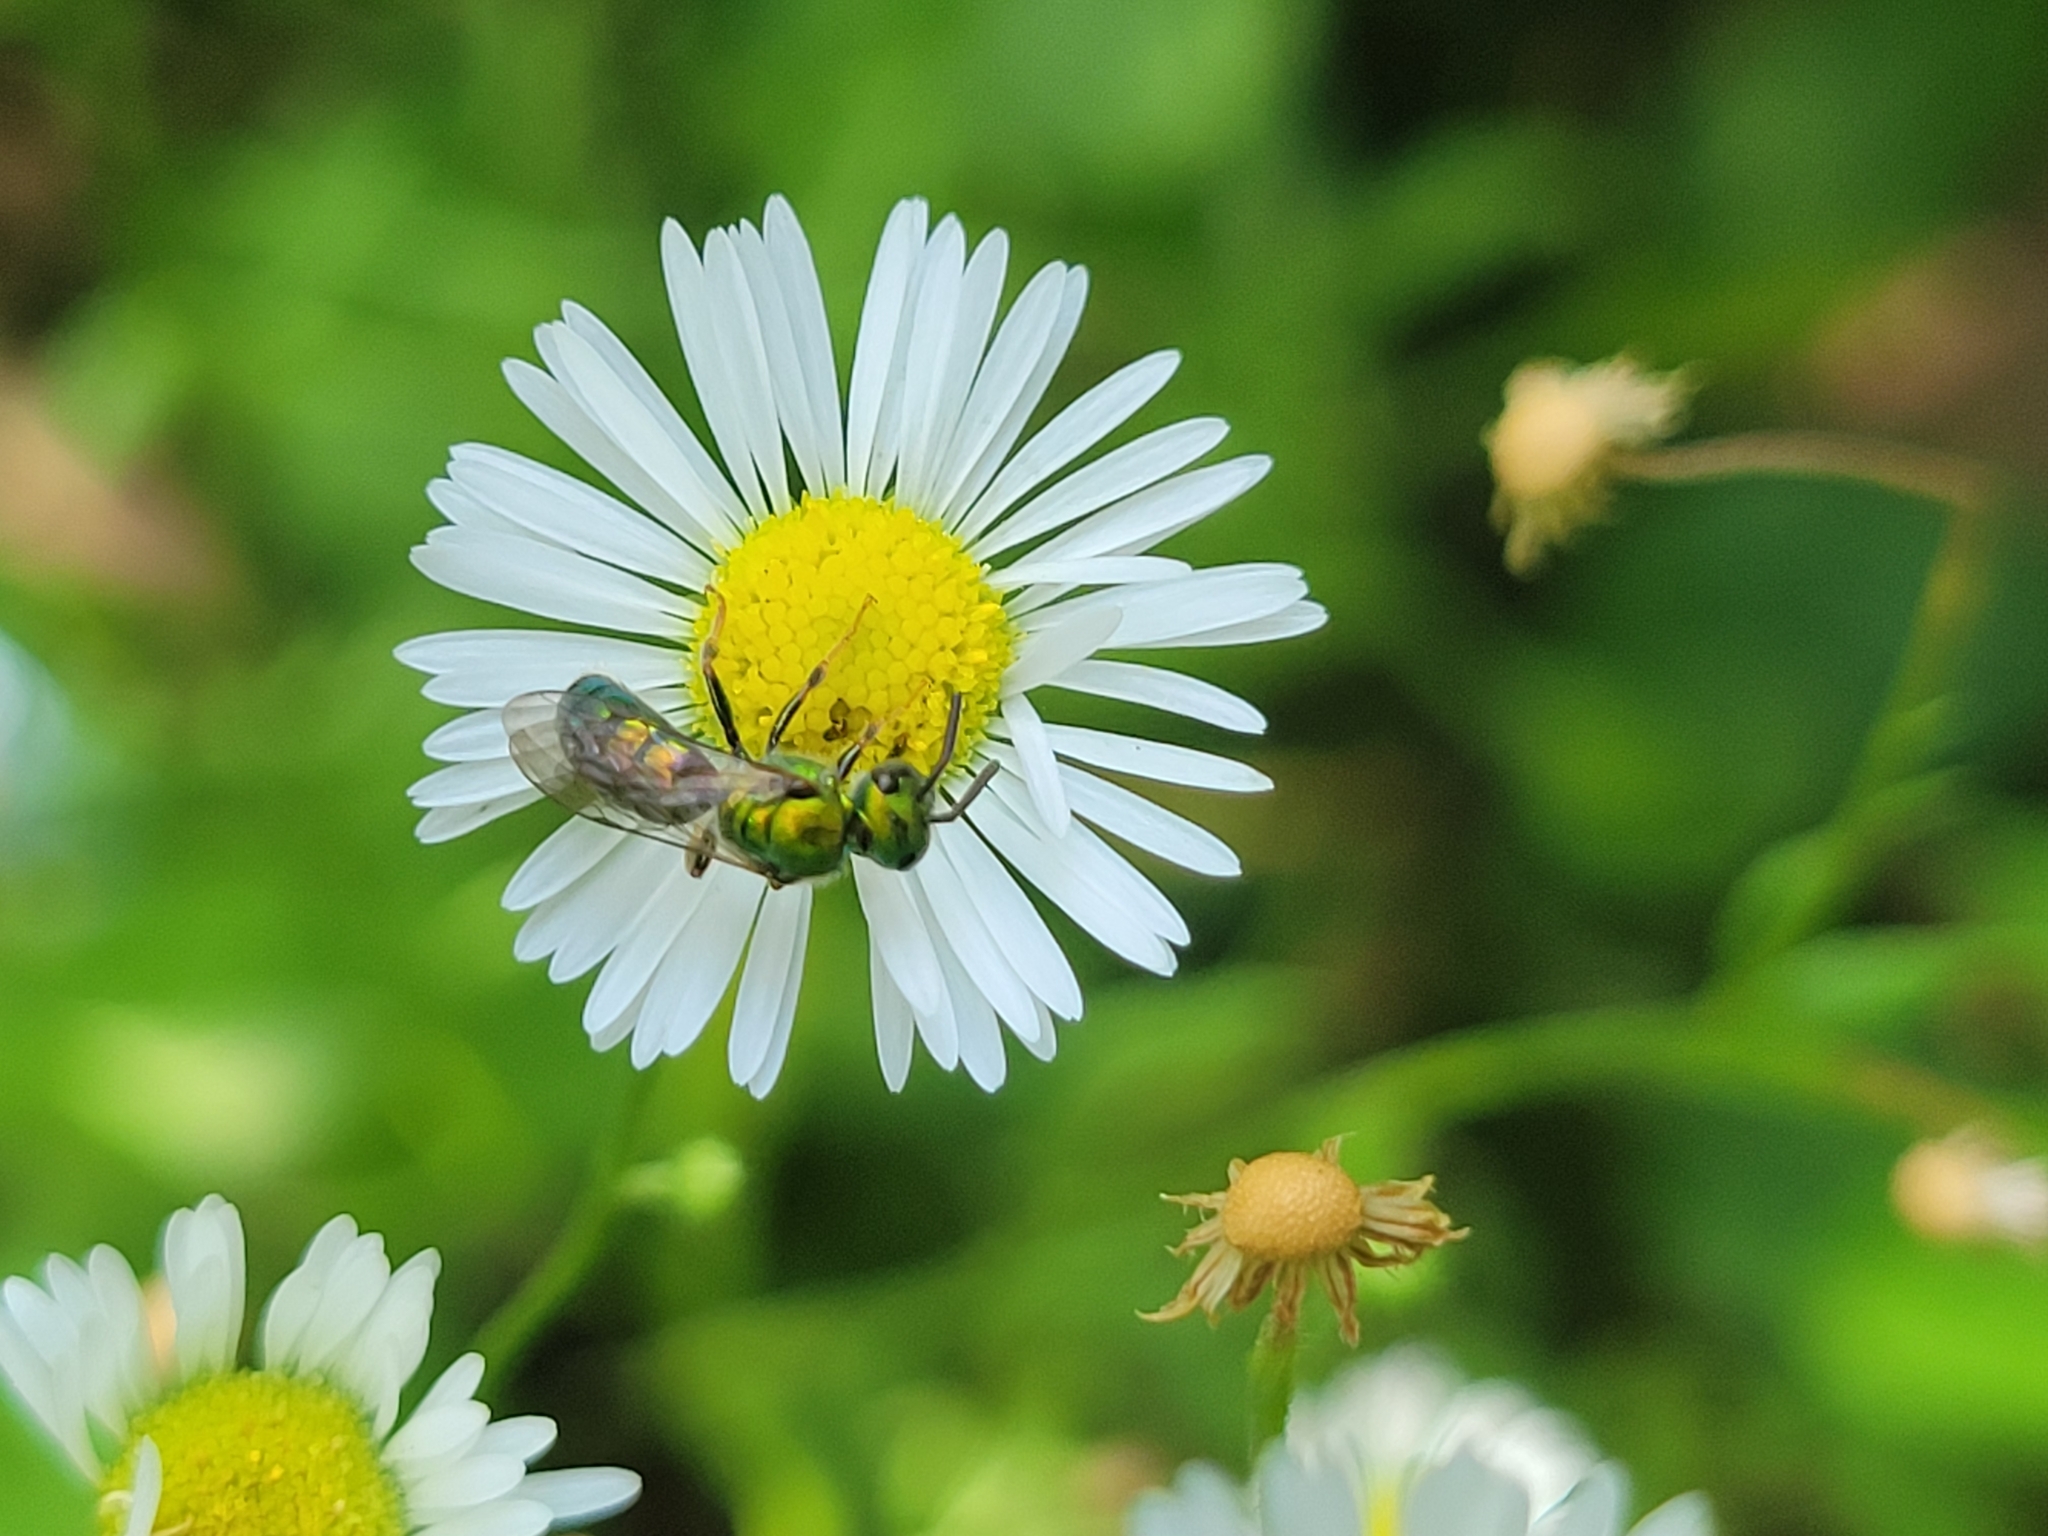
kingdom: Animalia
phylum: Arthropoda
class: Insecta
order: Hymenoptera
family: Halictidae
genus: Augochlora
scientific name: Augochlora pura
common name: Pure green sweat bee
